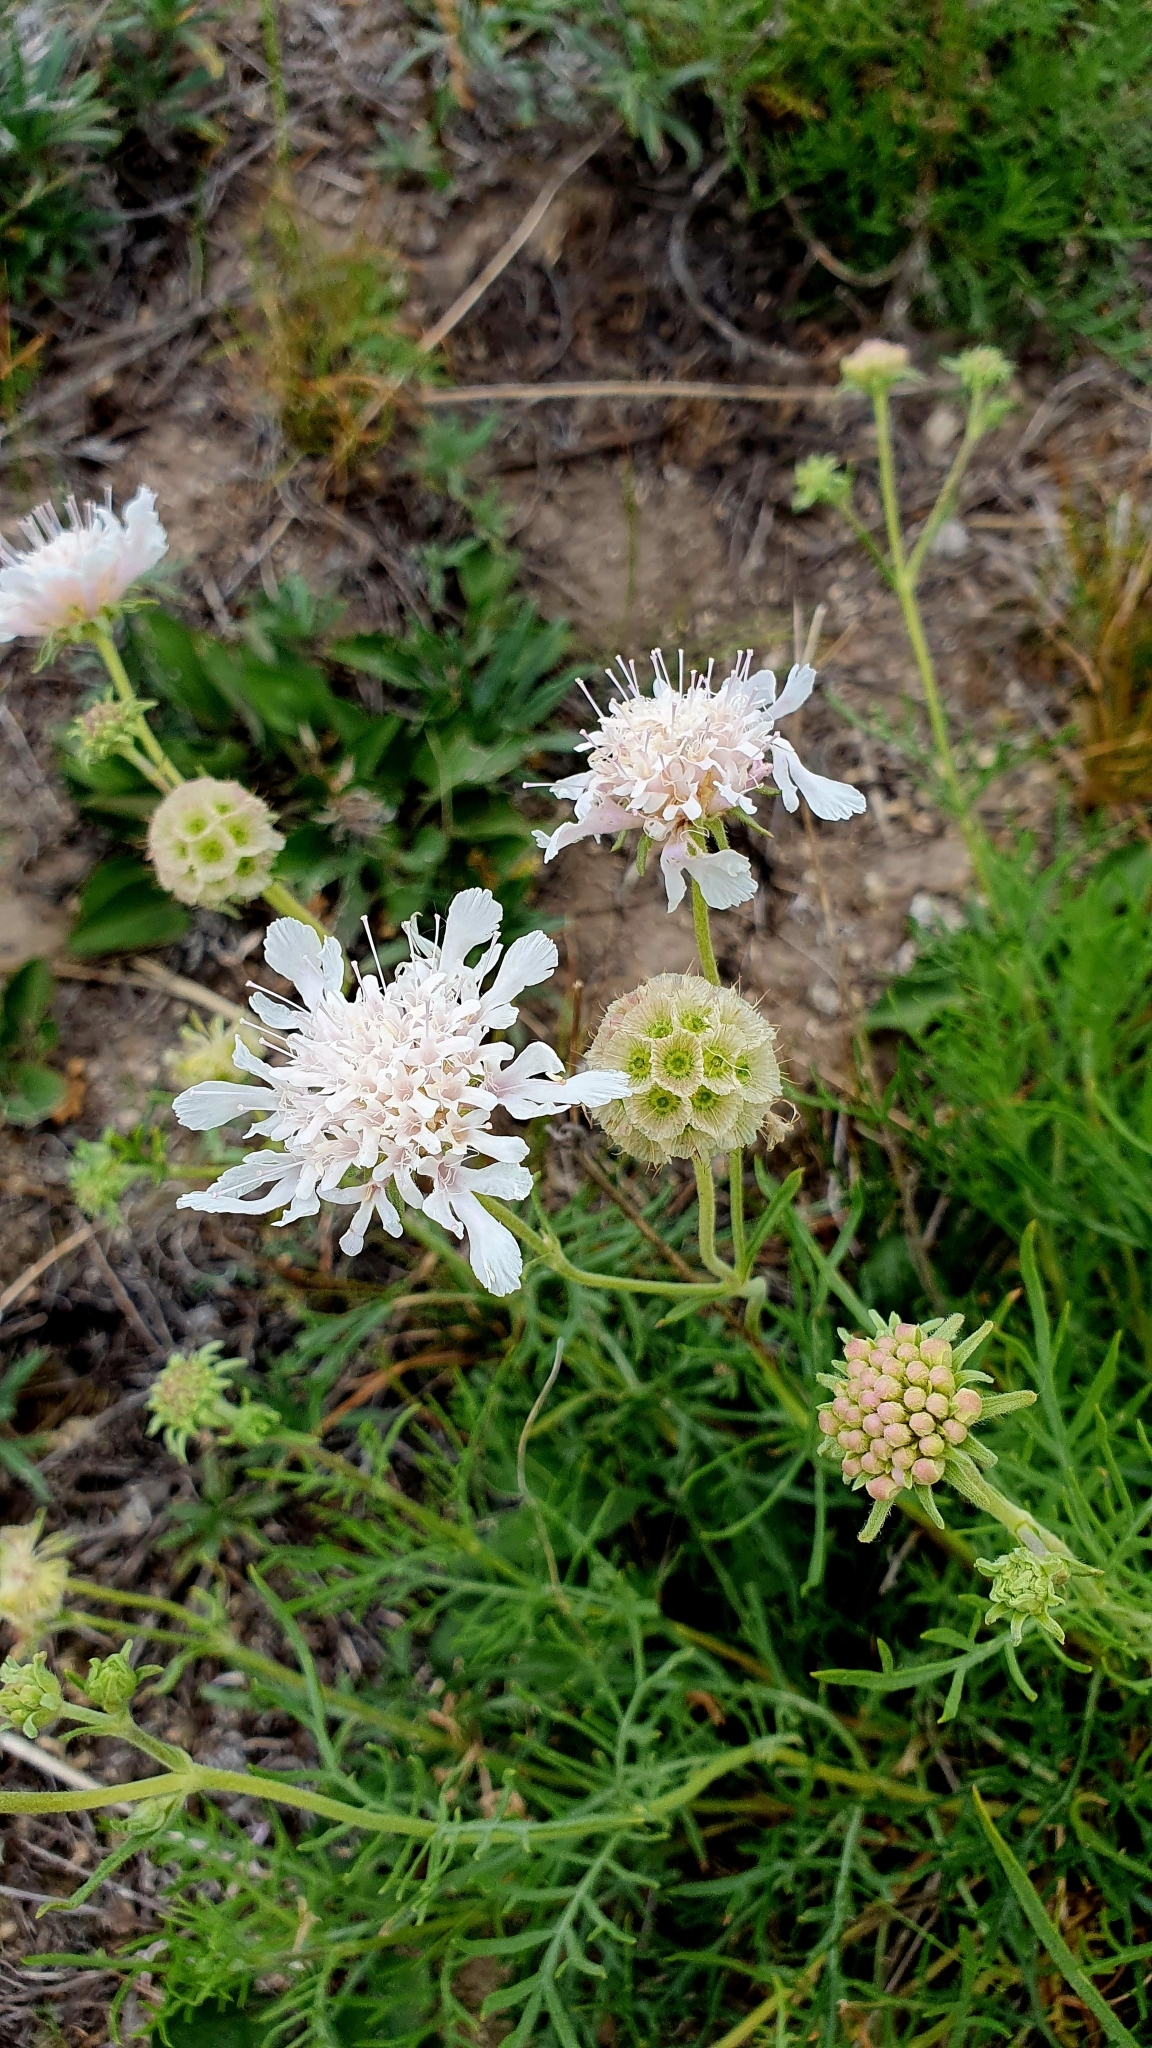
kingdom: Plantae
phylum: Tracheophyta
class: Magnoliopsida
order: Dipsacales
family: Caprifoliaceae
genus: Lomelosia
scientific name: Lomelosia isetensis
